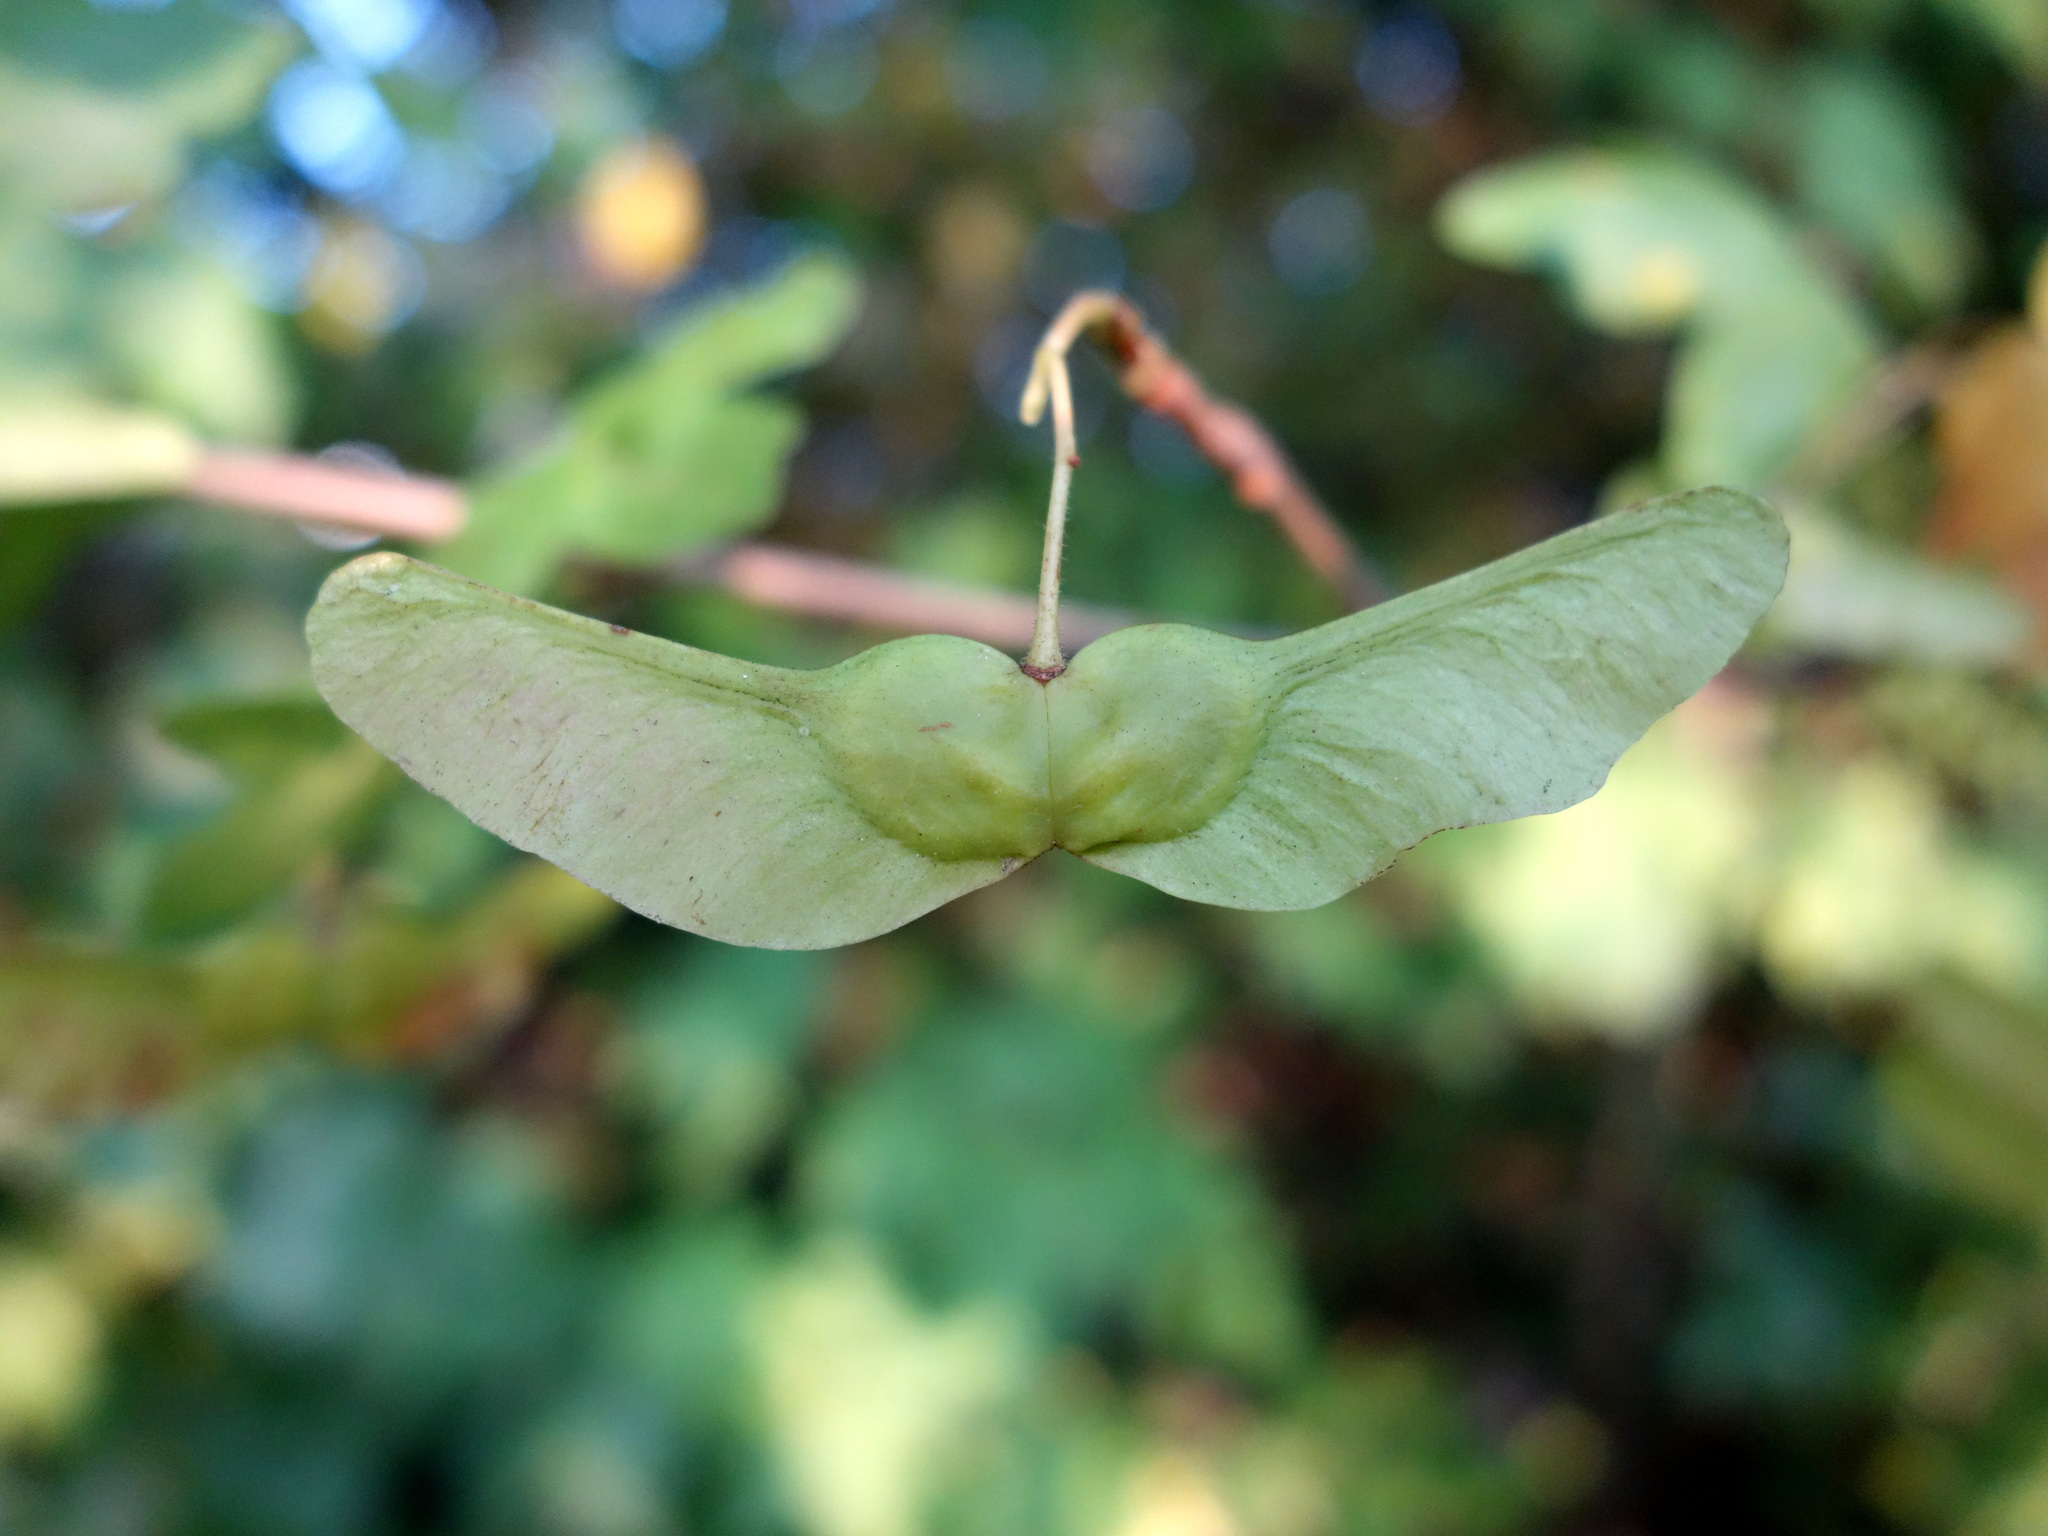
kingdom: Plantae
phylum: Tracheophyta
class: Magnoliopsida
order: Sapindales
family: Sapindaceae
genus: Acer
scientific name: Acer campestre
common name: Field maple
